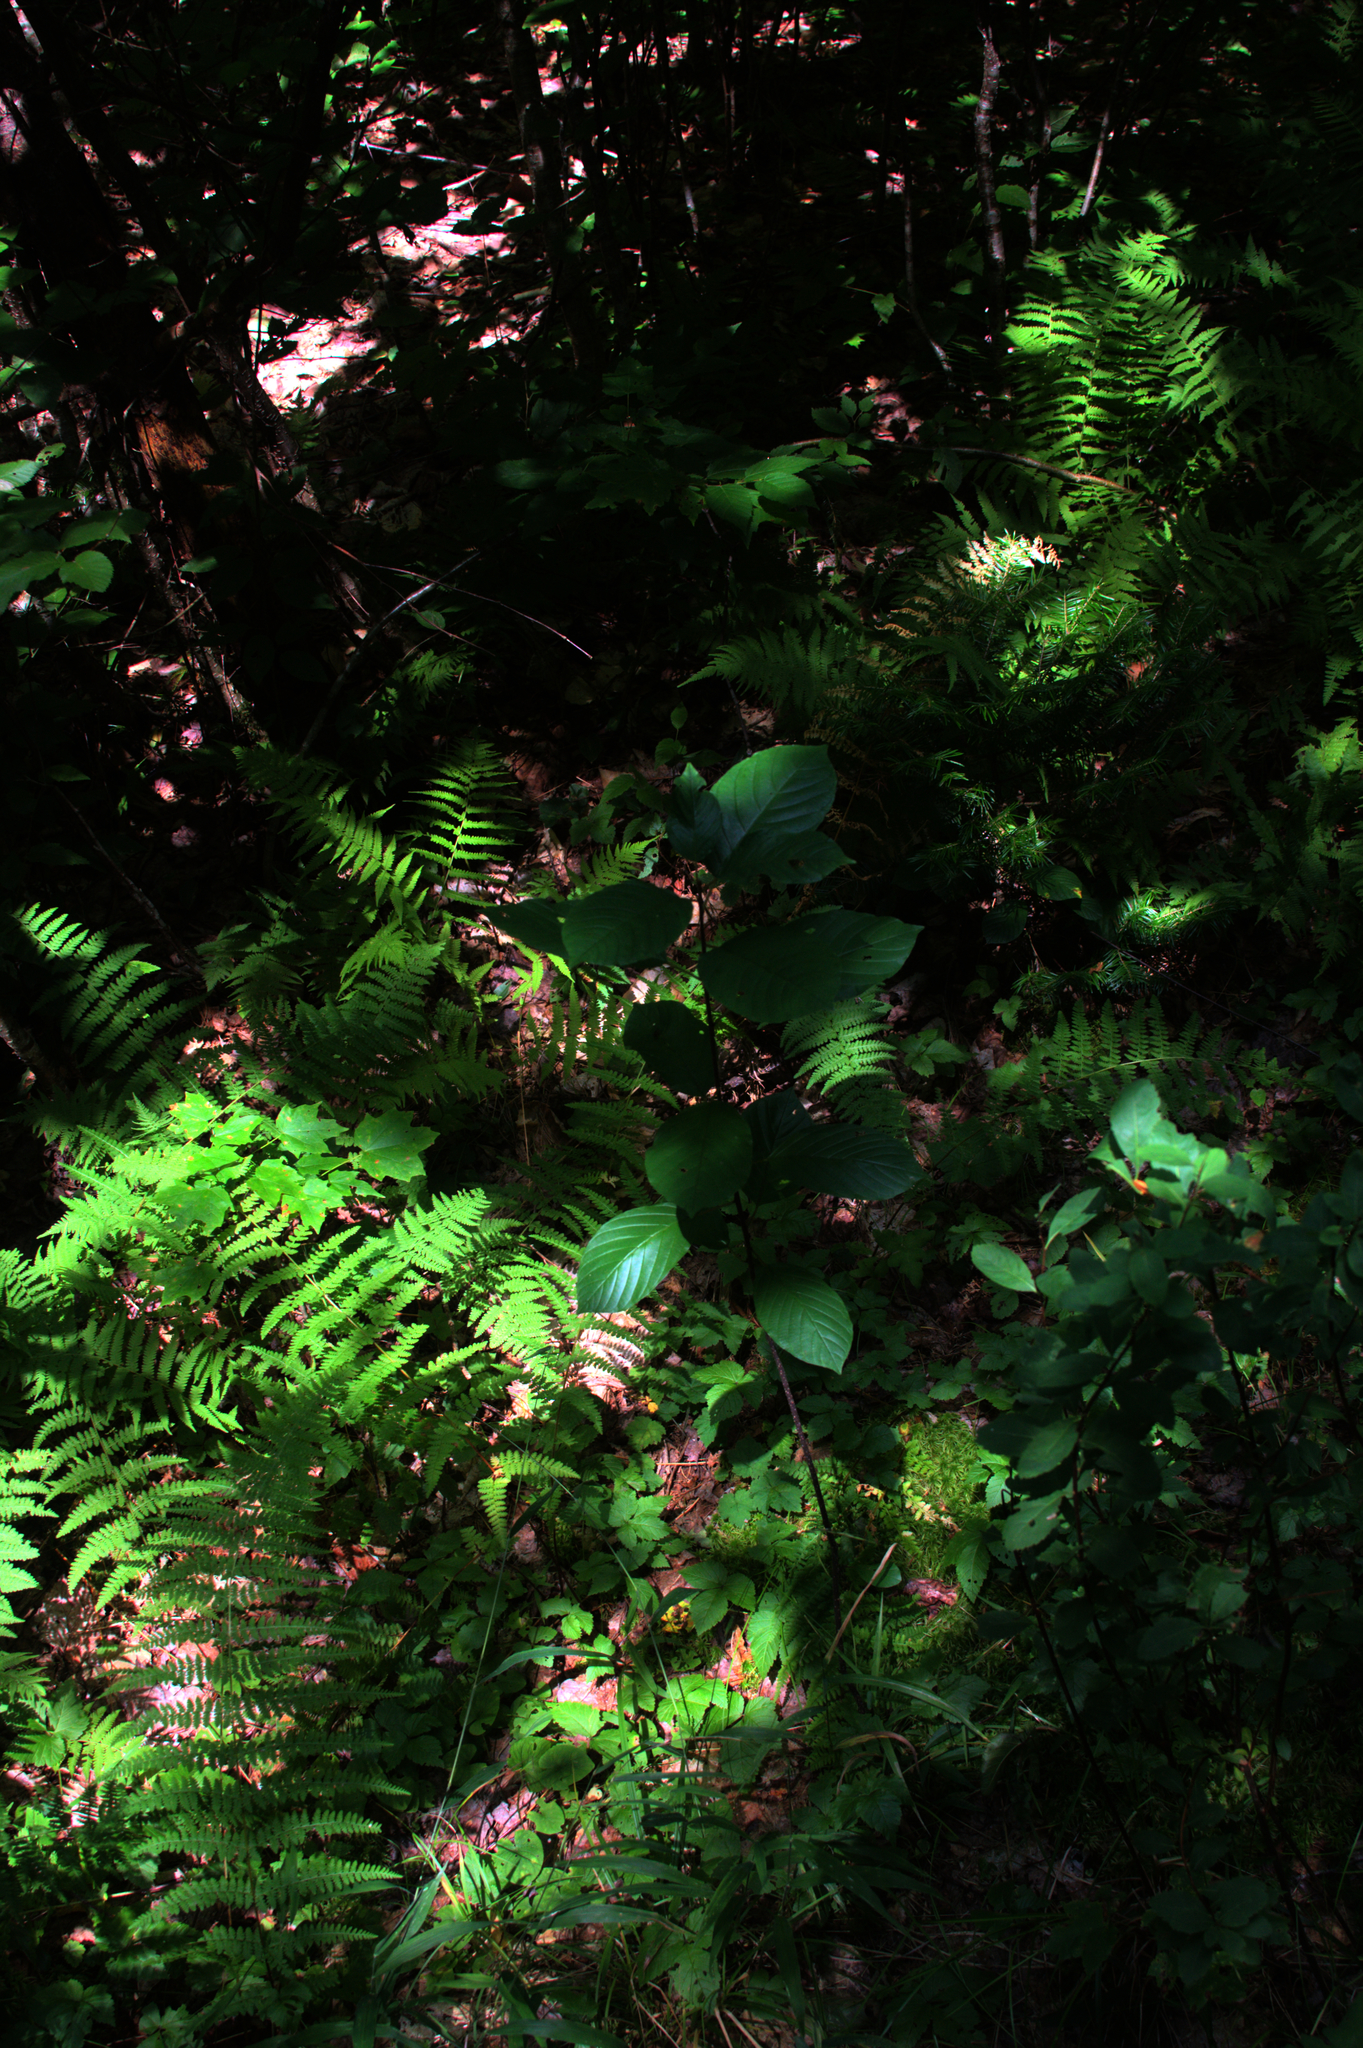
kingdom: Plantae
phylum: Tracheophyta
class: Magnoliopsida
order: Rosales
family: Rhamnaceae
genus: Frangula
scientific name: Frangula alnus
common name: Alder buckthorn
